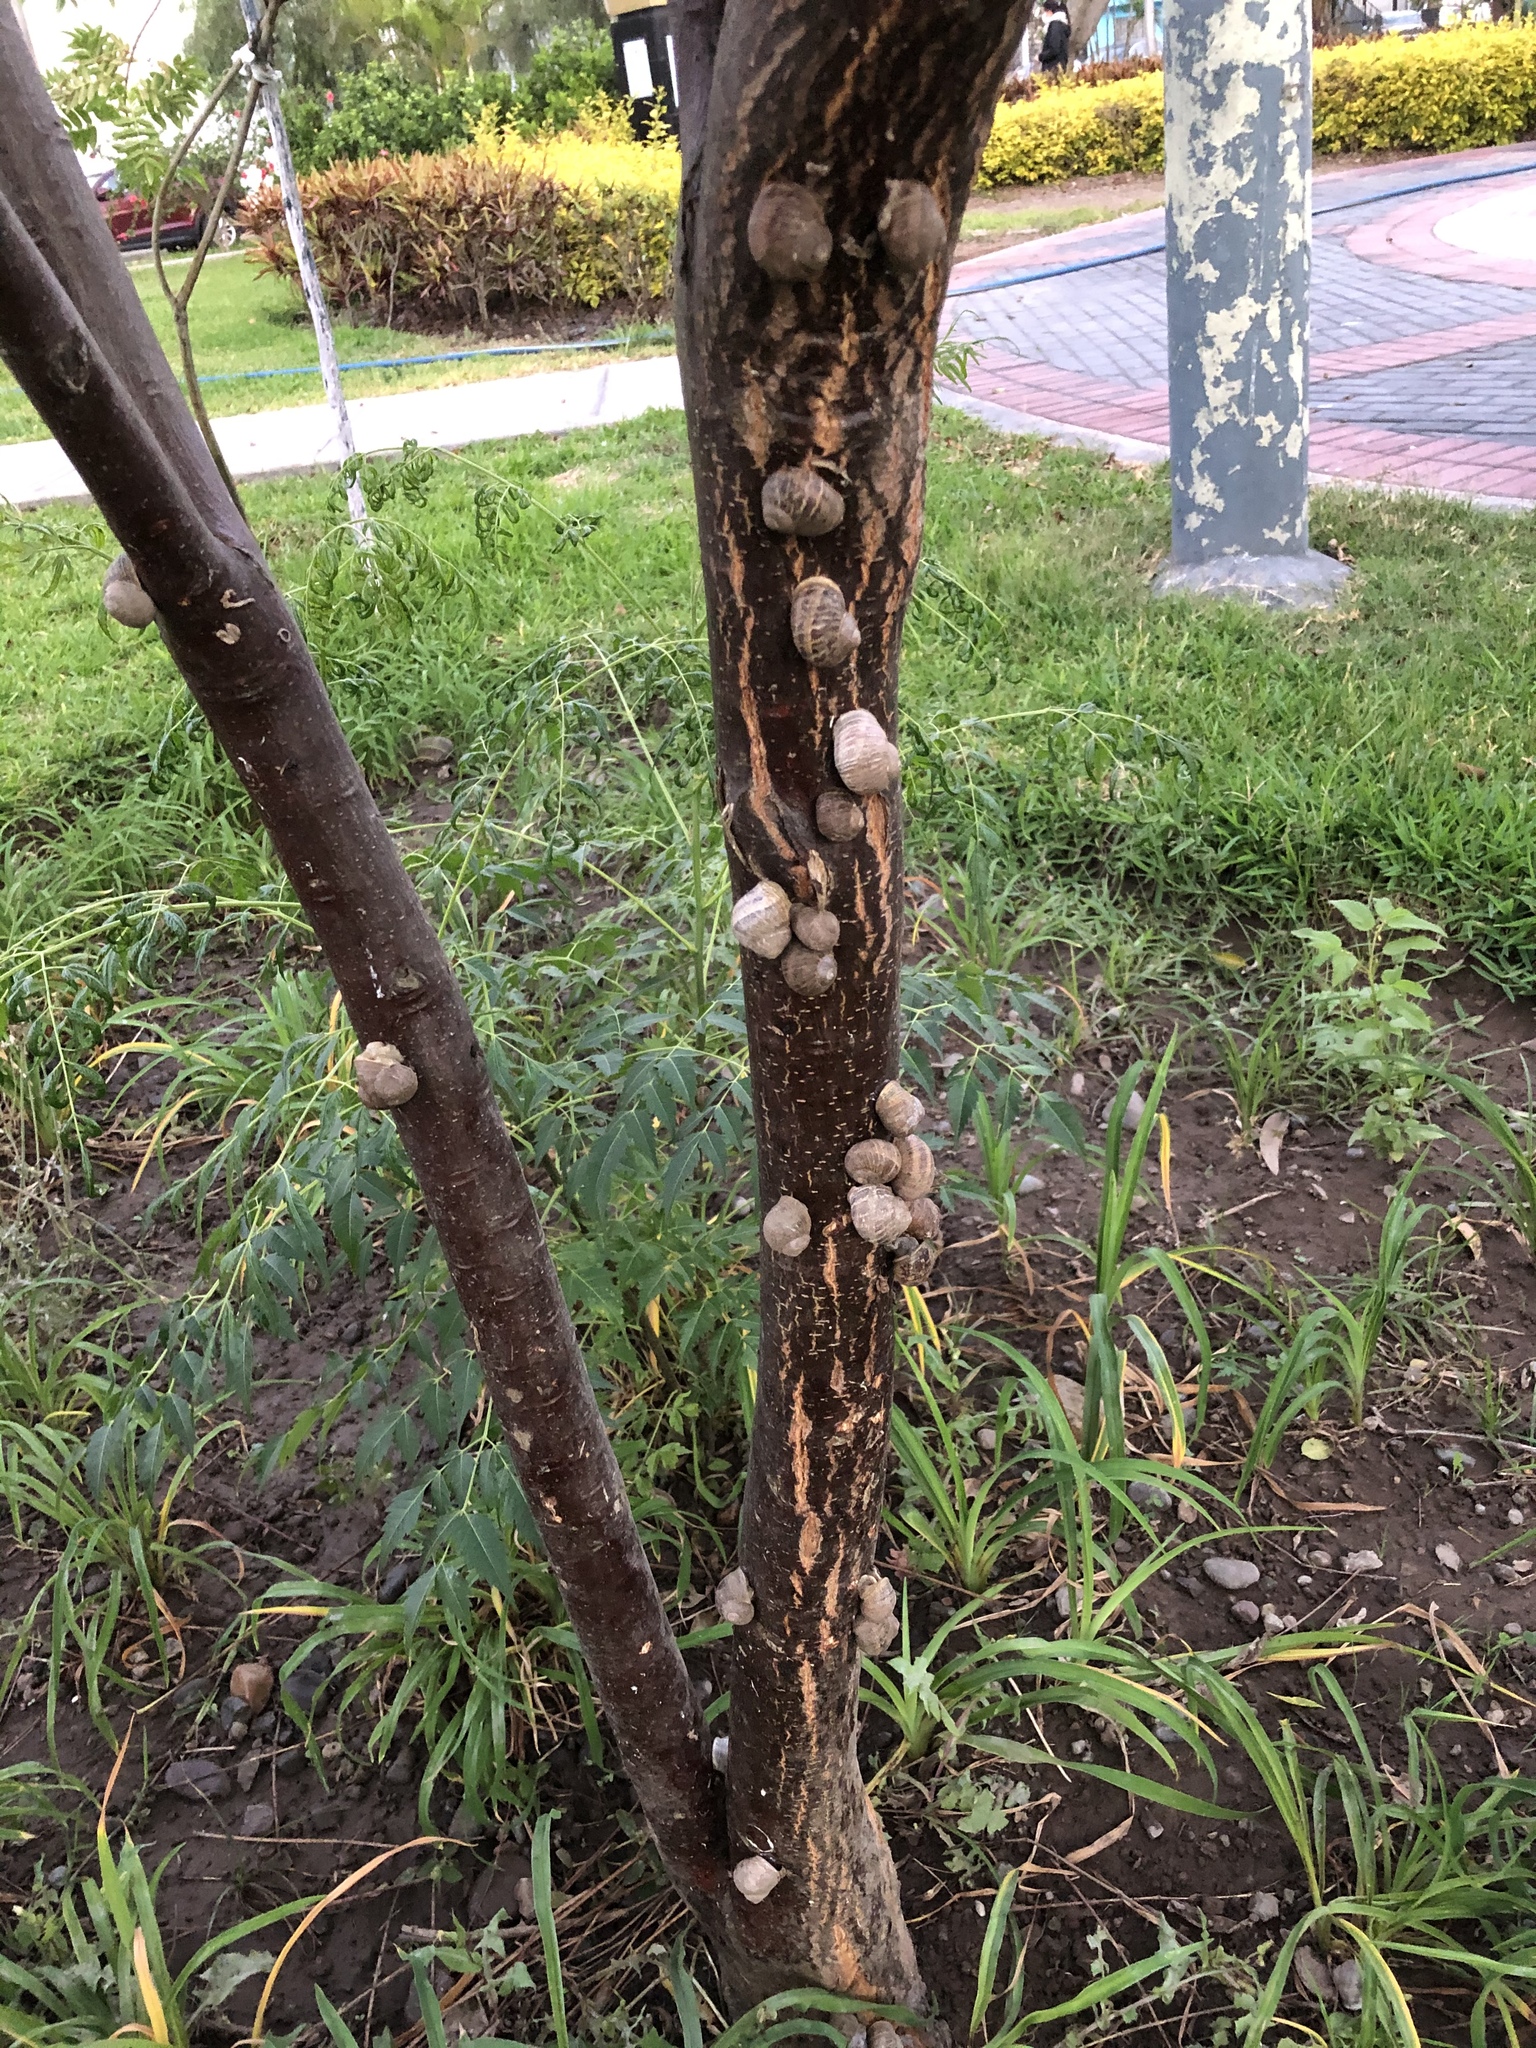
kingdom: Animalia
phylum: Mollusca
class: Gastropoda
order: Stylommatophora
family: Helicidae
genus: Cornu
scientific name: Cornu aspersum
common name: Brown garden snail
